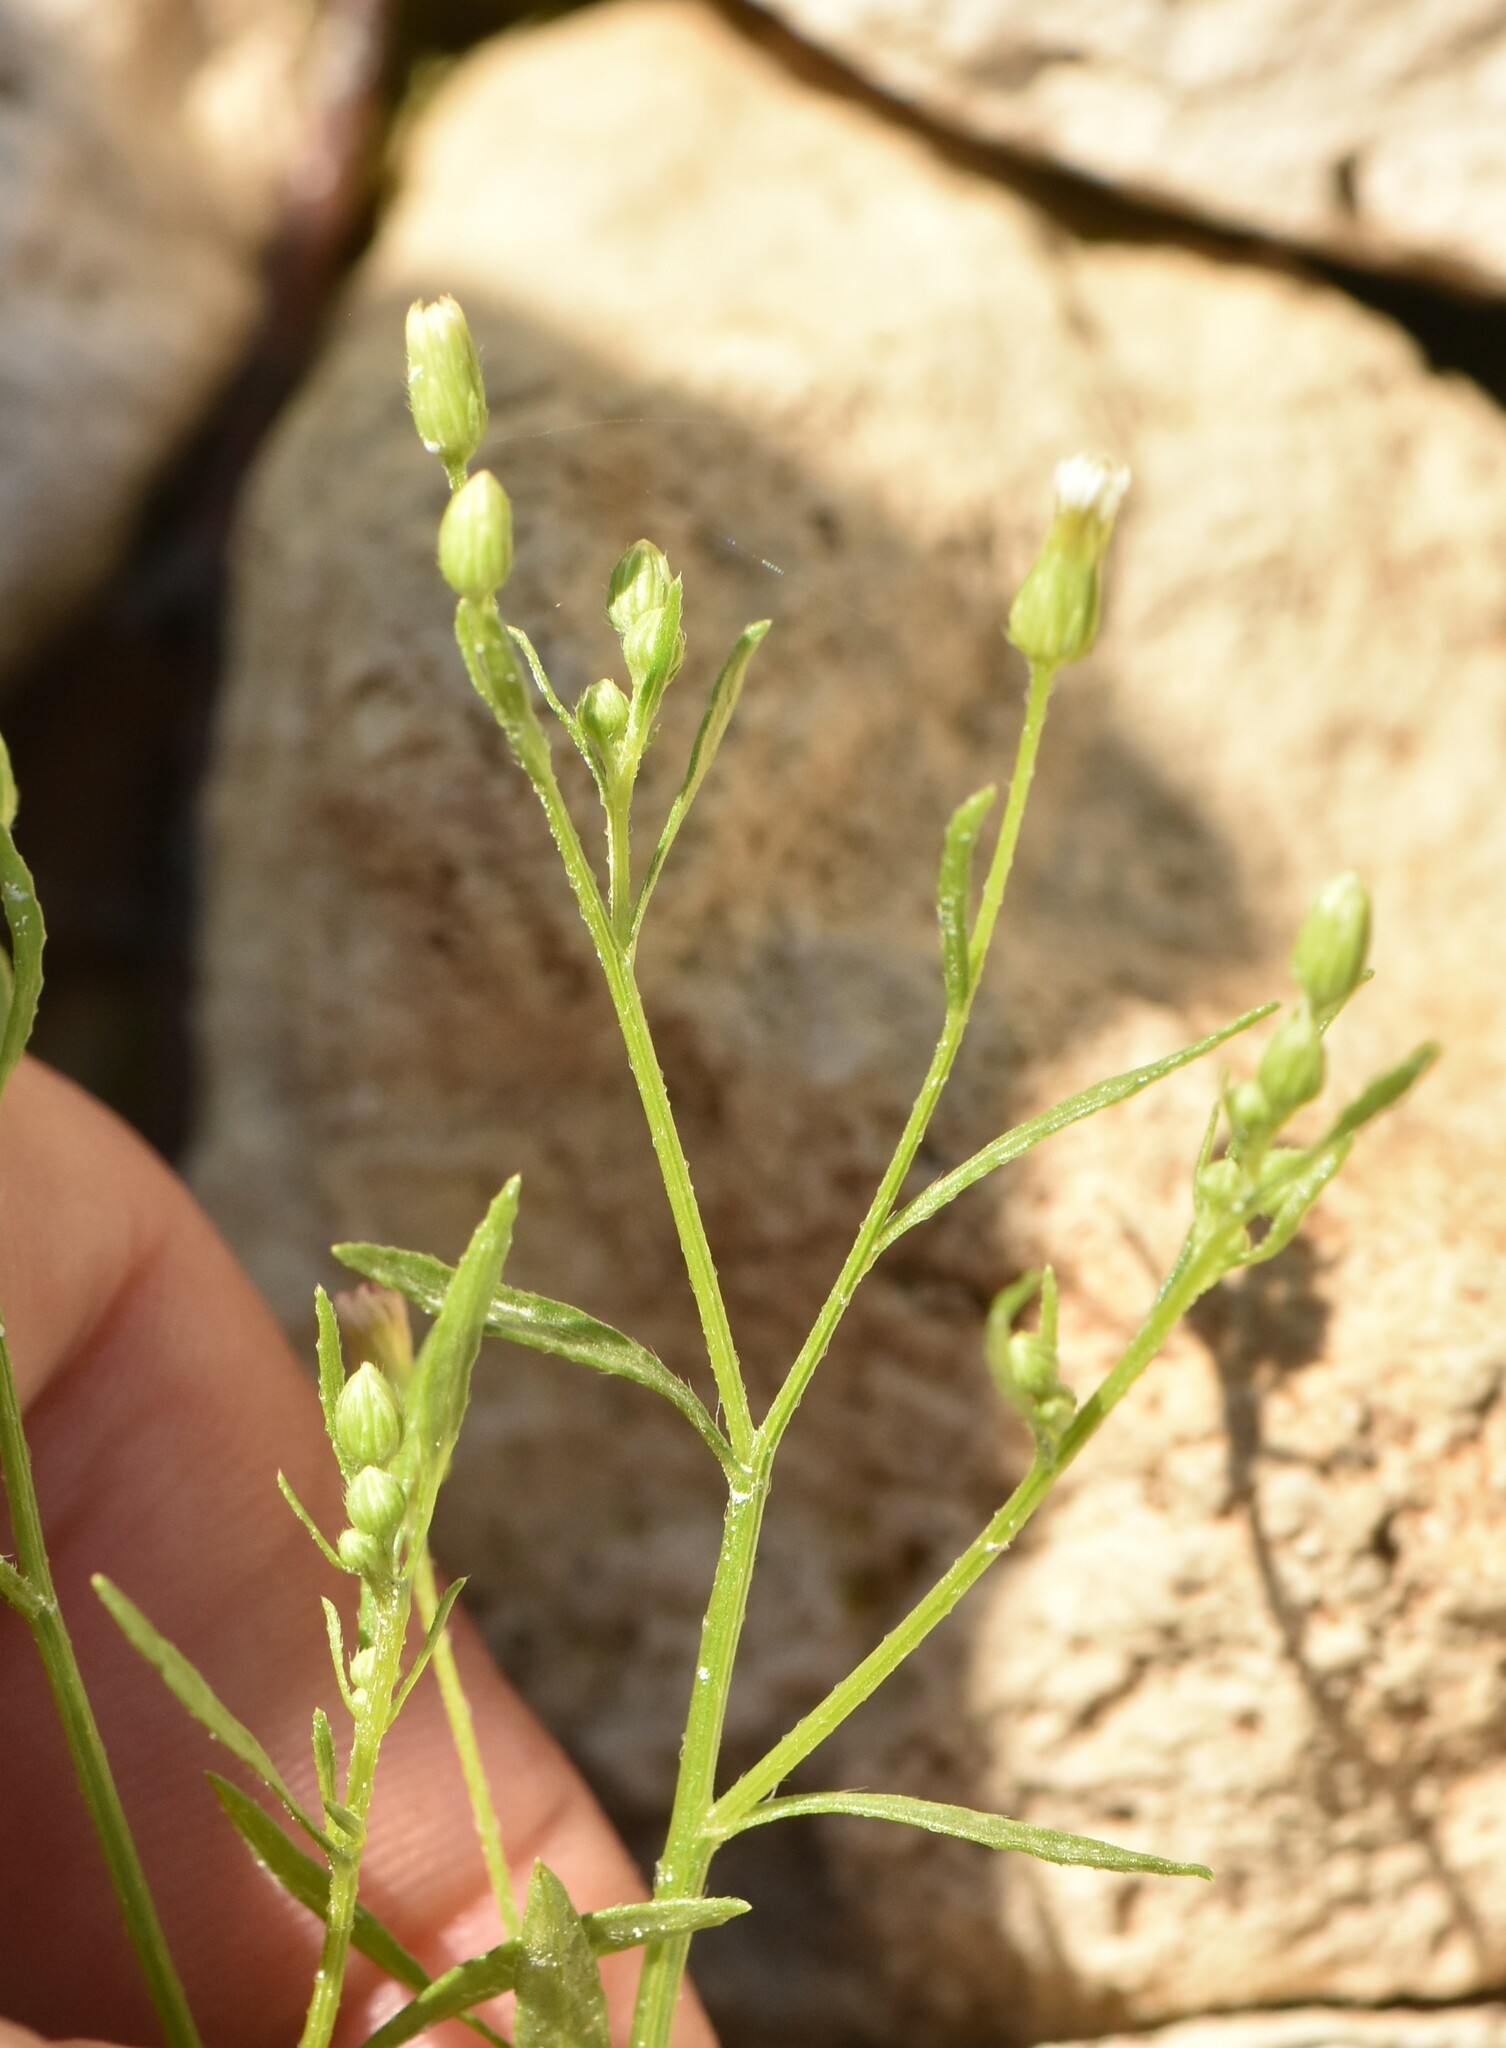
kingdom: Plantae
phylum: Tracheophyta
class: Magnoliopsida
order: Asterales
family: Asteraceae
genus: Erigeron
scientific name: Erigeron canadensis
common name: Canadian fleabane
